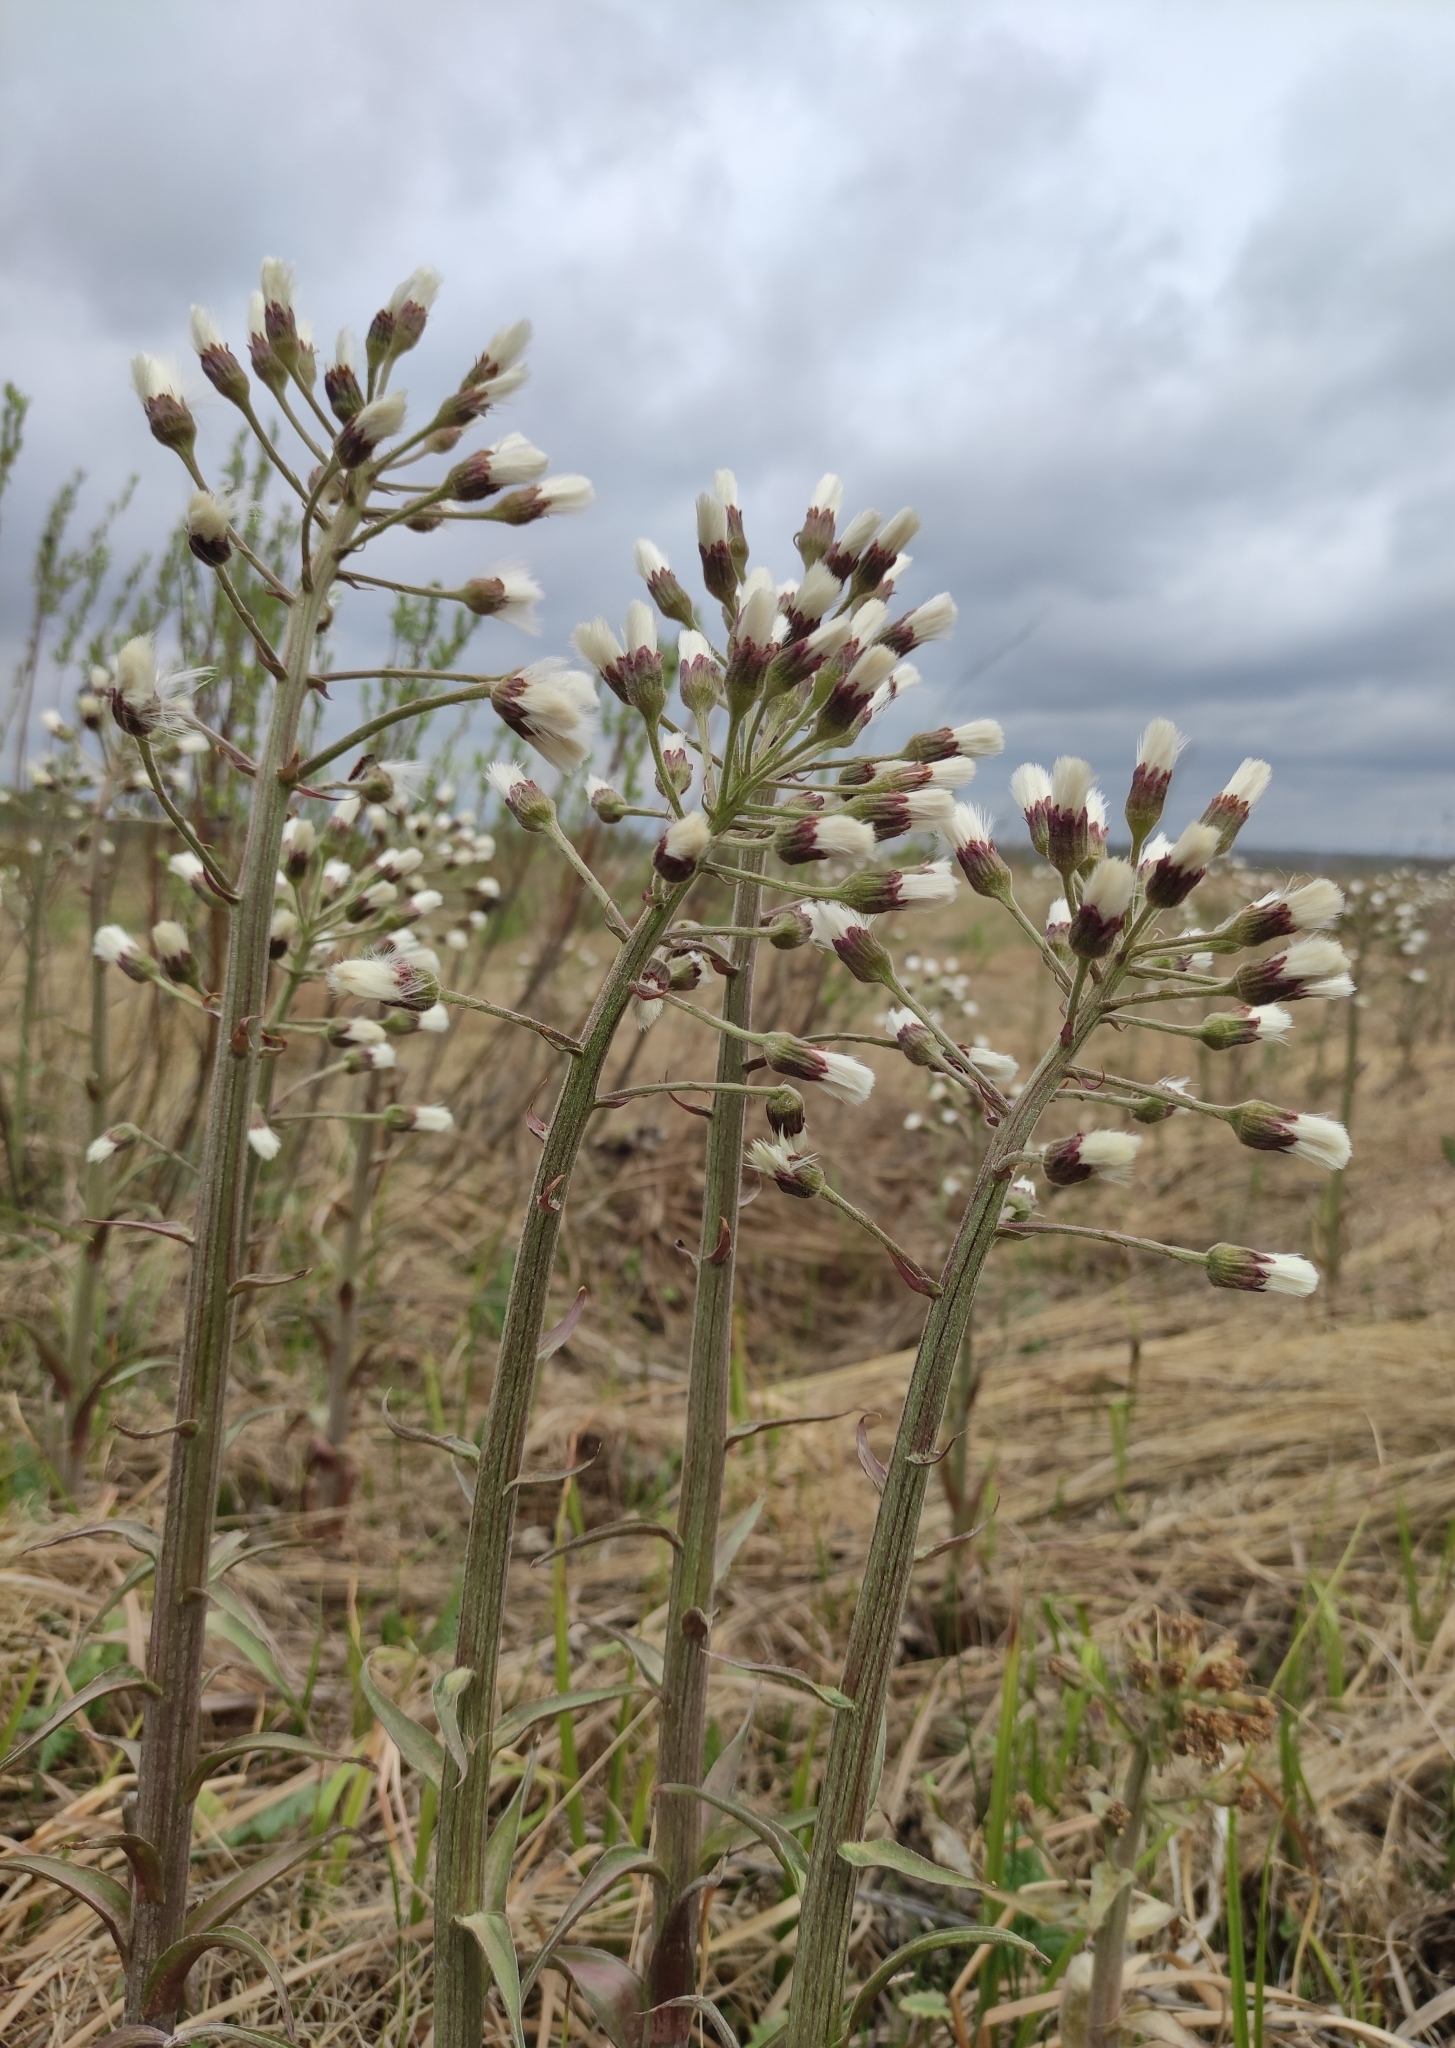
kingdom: Plantae
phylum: Tracheophyta
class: Magnoliopsida
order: Asterales
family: Asteraceae
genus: Petasites
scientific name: Petasites frigidus
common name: Arctic butterbur
